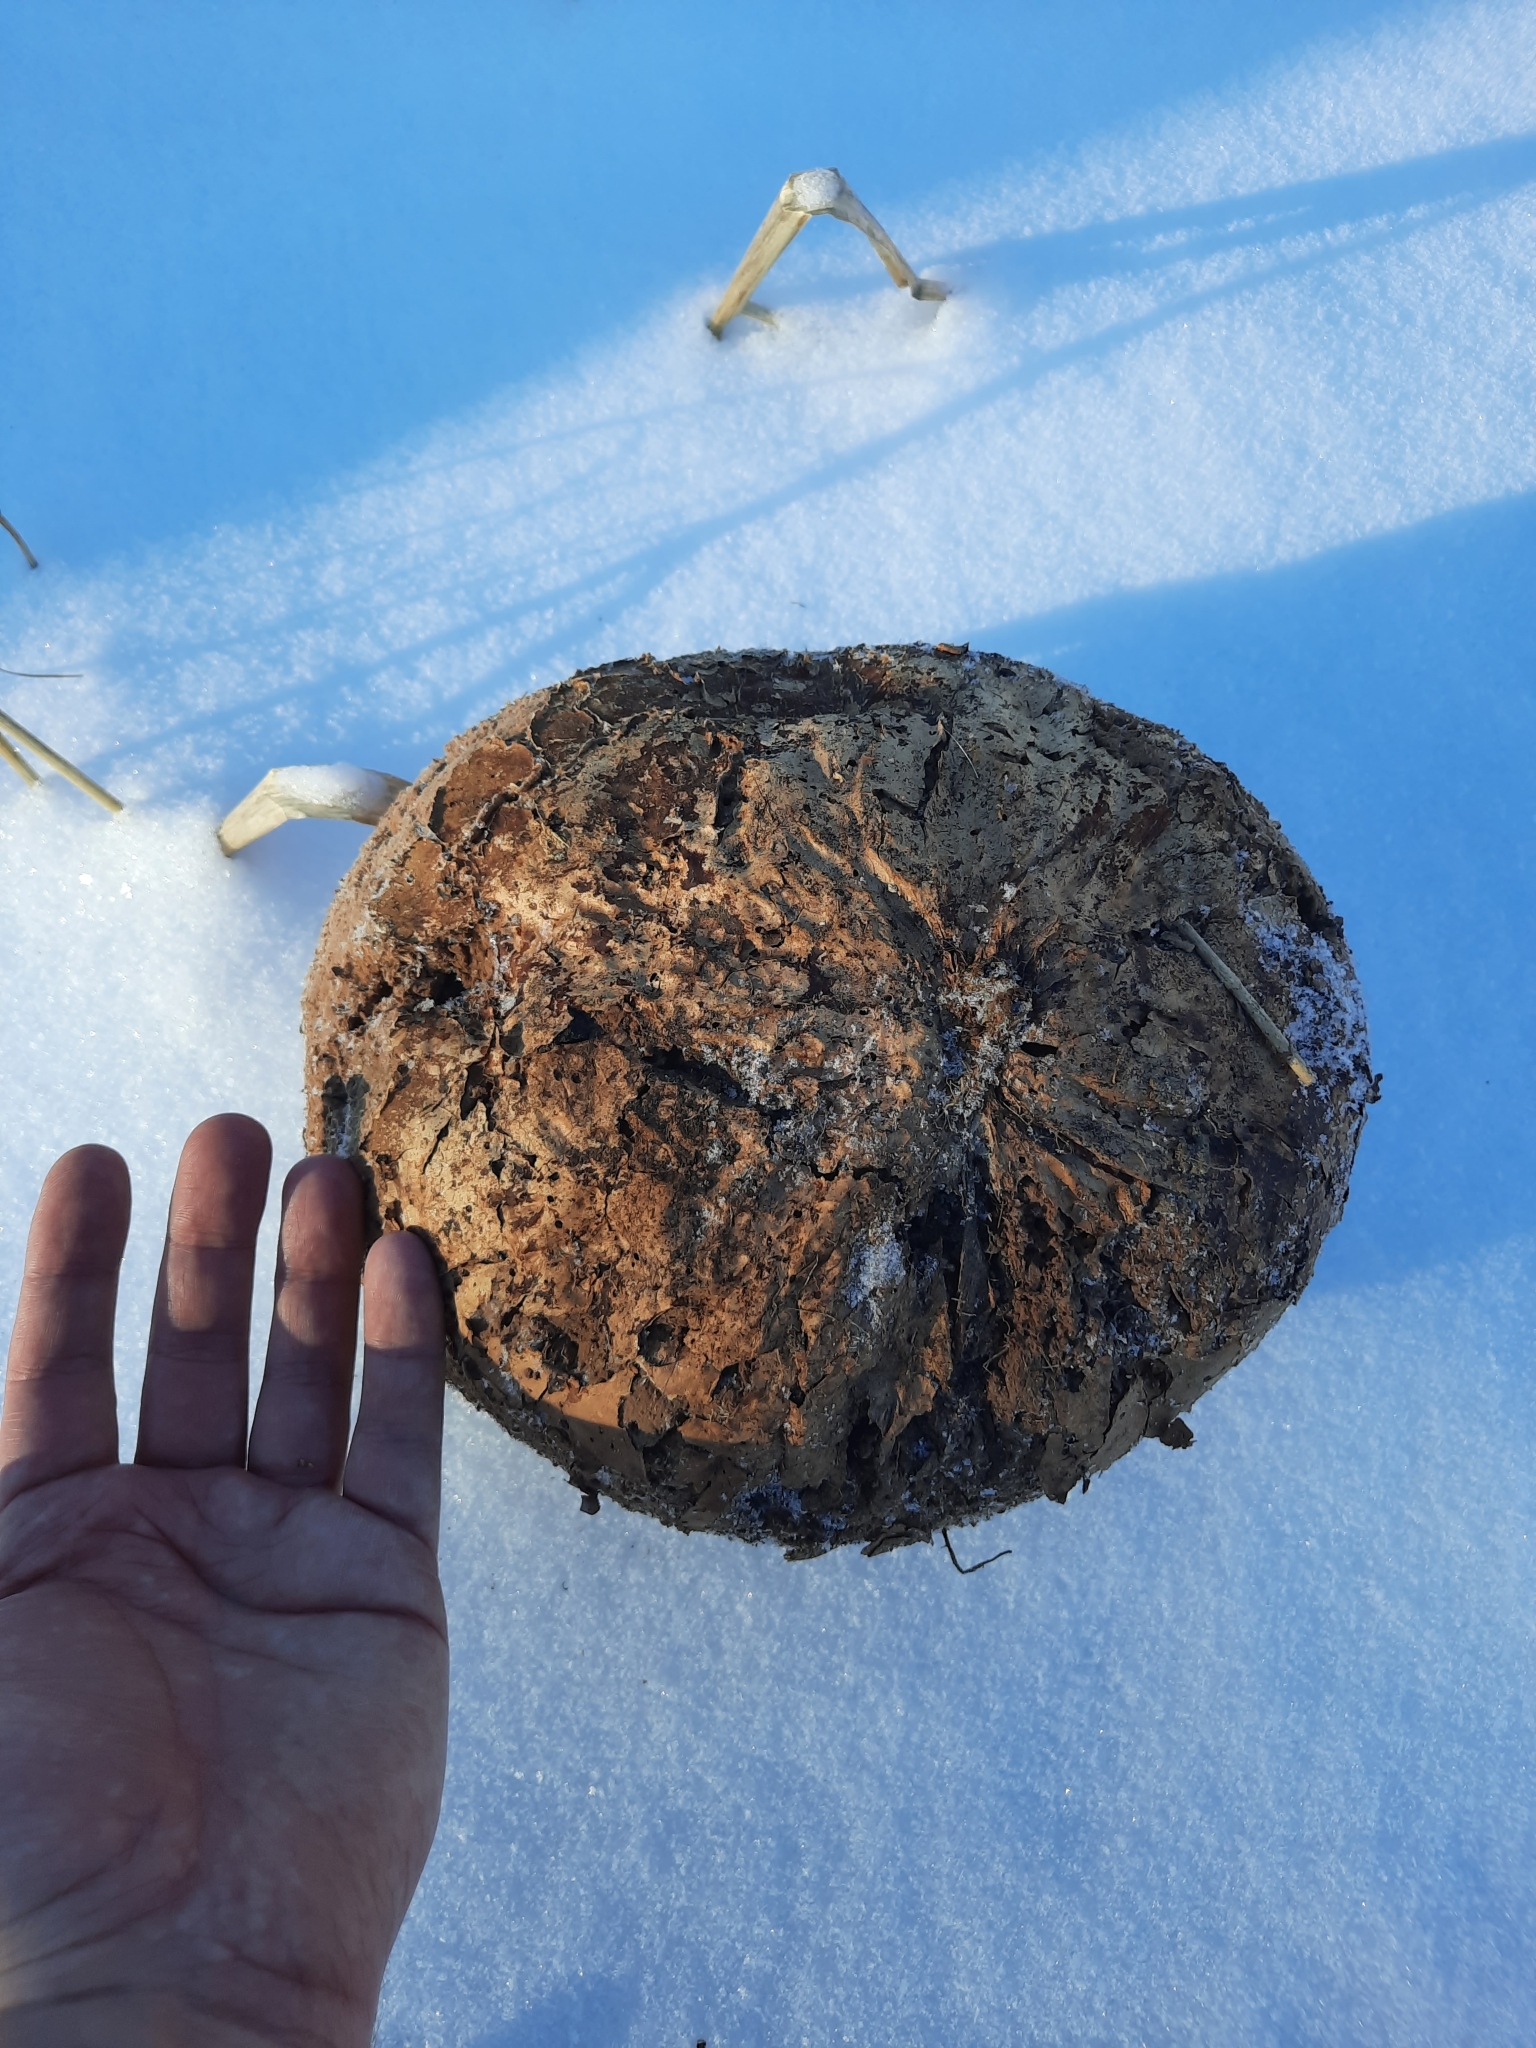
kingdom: Fungi
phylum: Basidiomycota
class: Agaricomycetes
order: Agaricales
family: Lycoperdaceae
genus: Calvatia
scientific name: Calvatia gigantea
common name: Giant puffball
